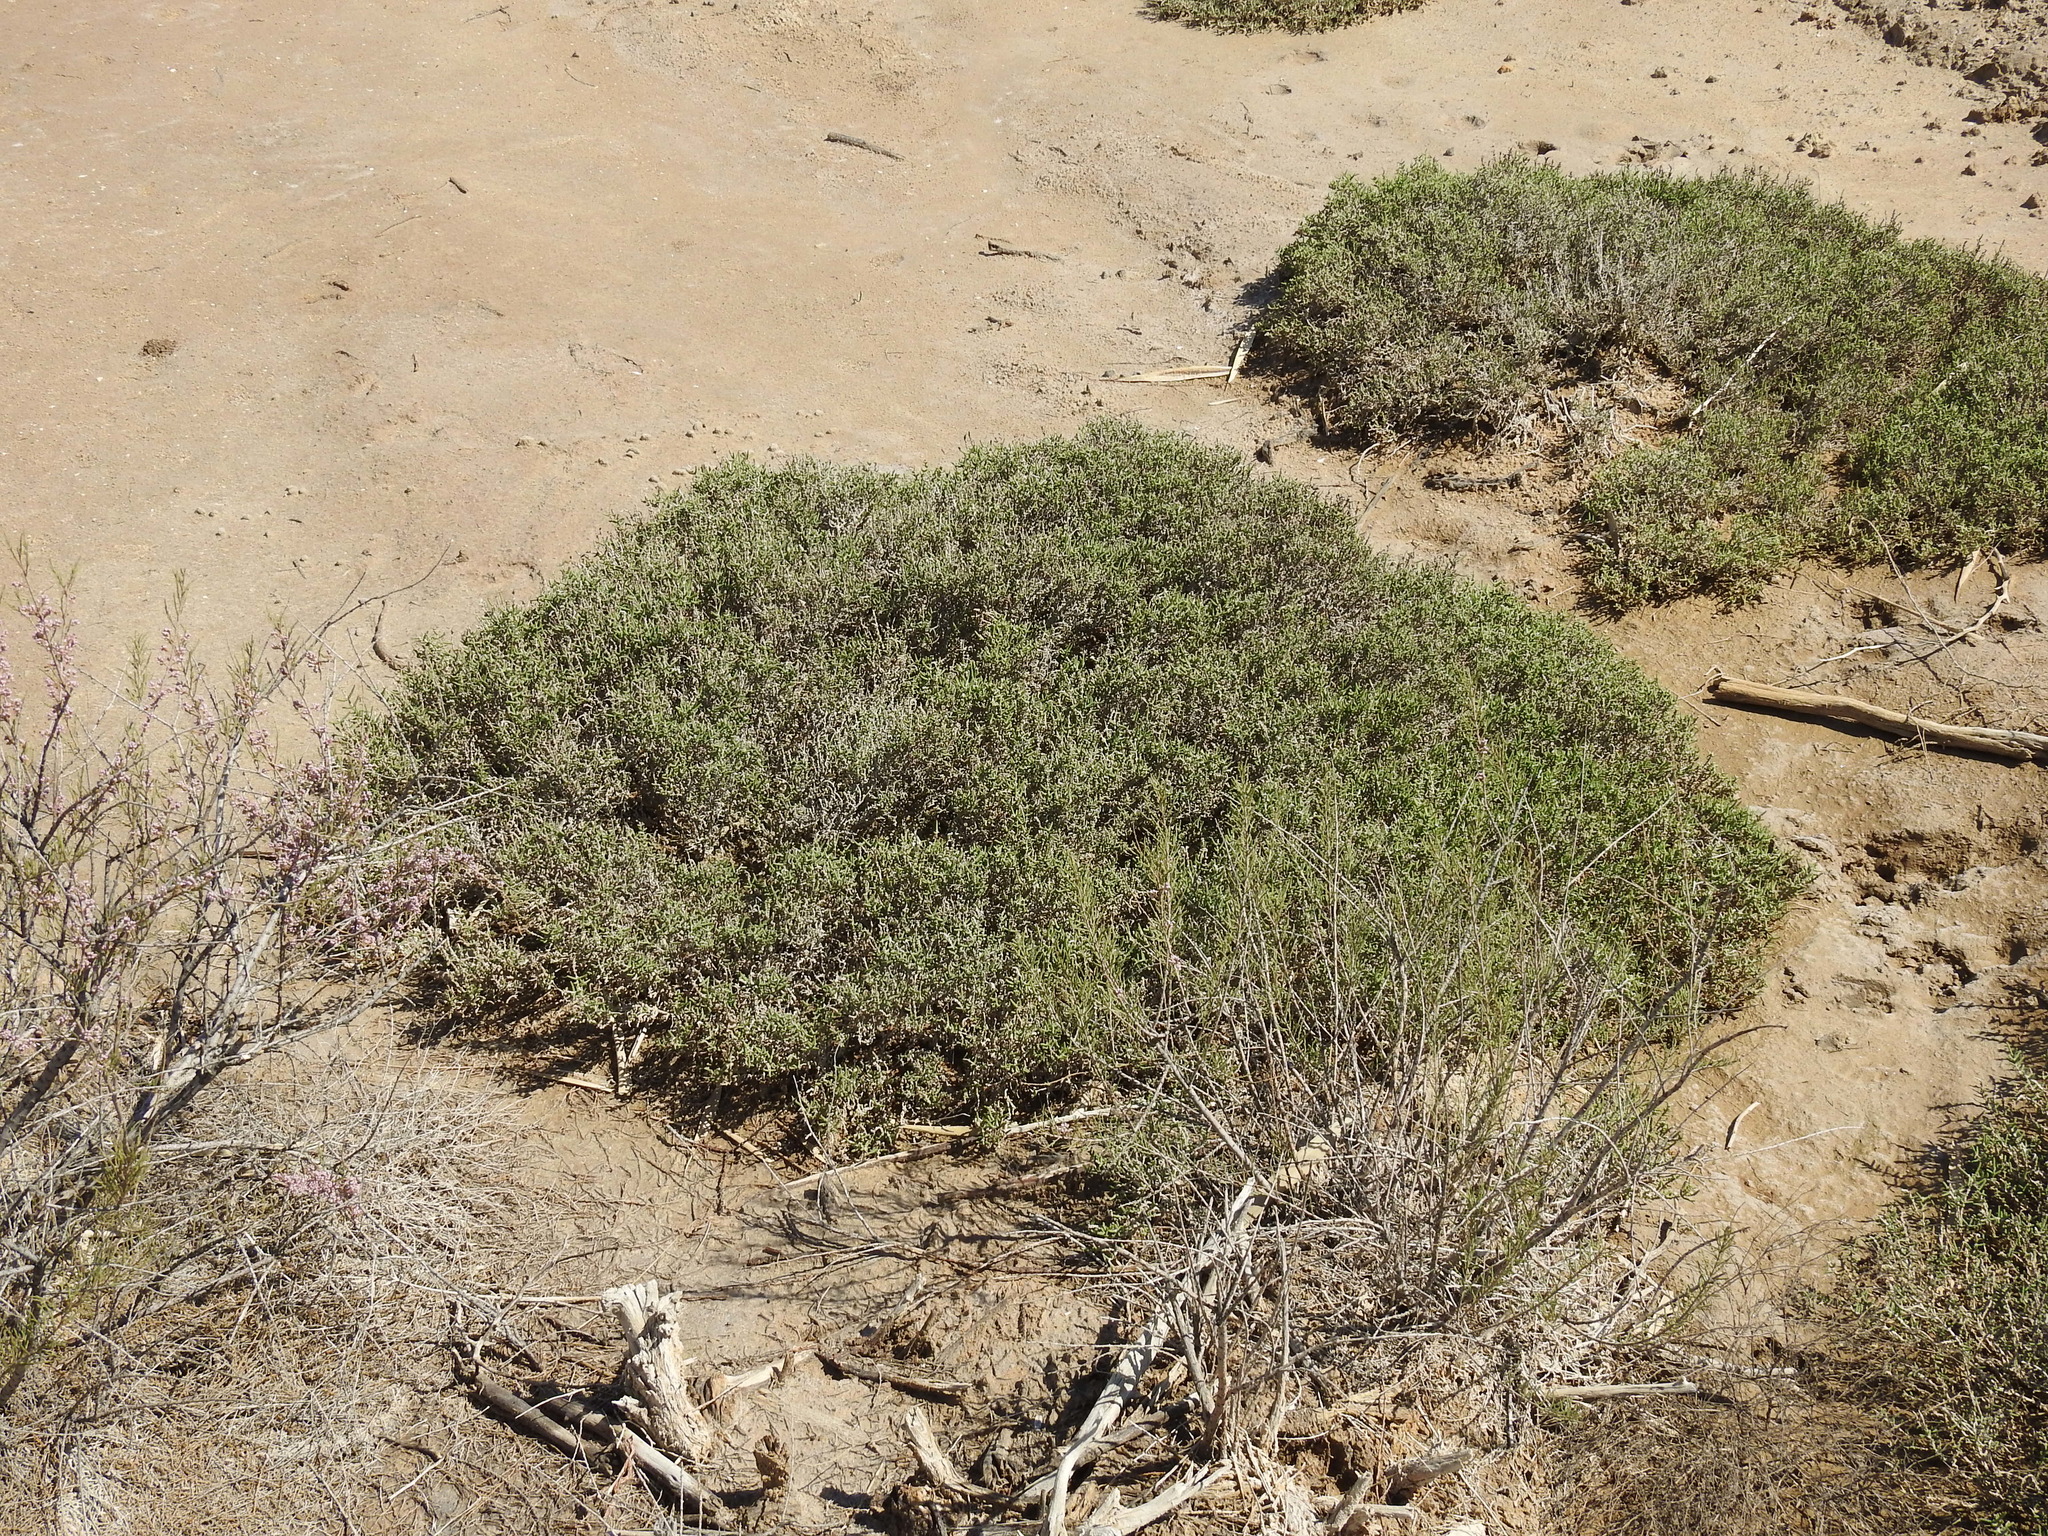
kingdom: Plantae
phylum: Tracheophyta
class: Magnoliopsida
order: Caryophyllales
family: Amaranthaceae
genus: Halocnemum
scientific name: Halocnemum strobilaceum
